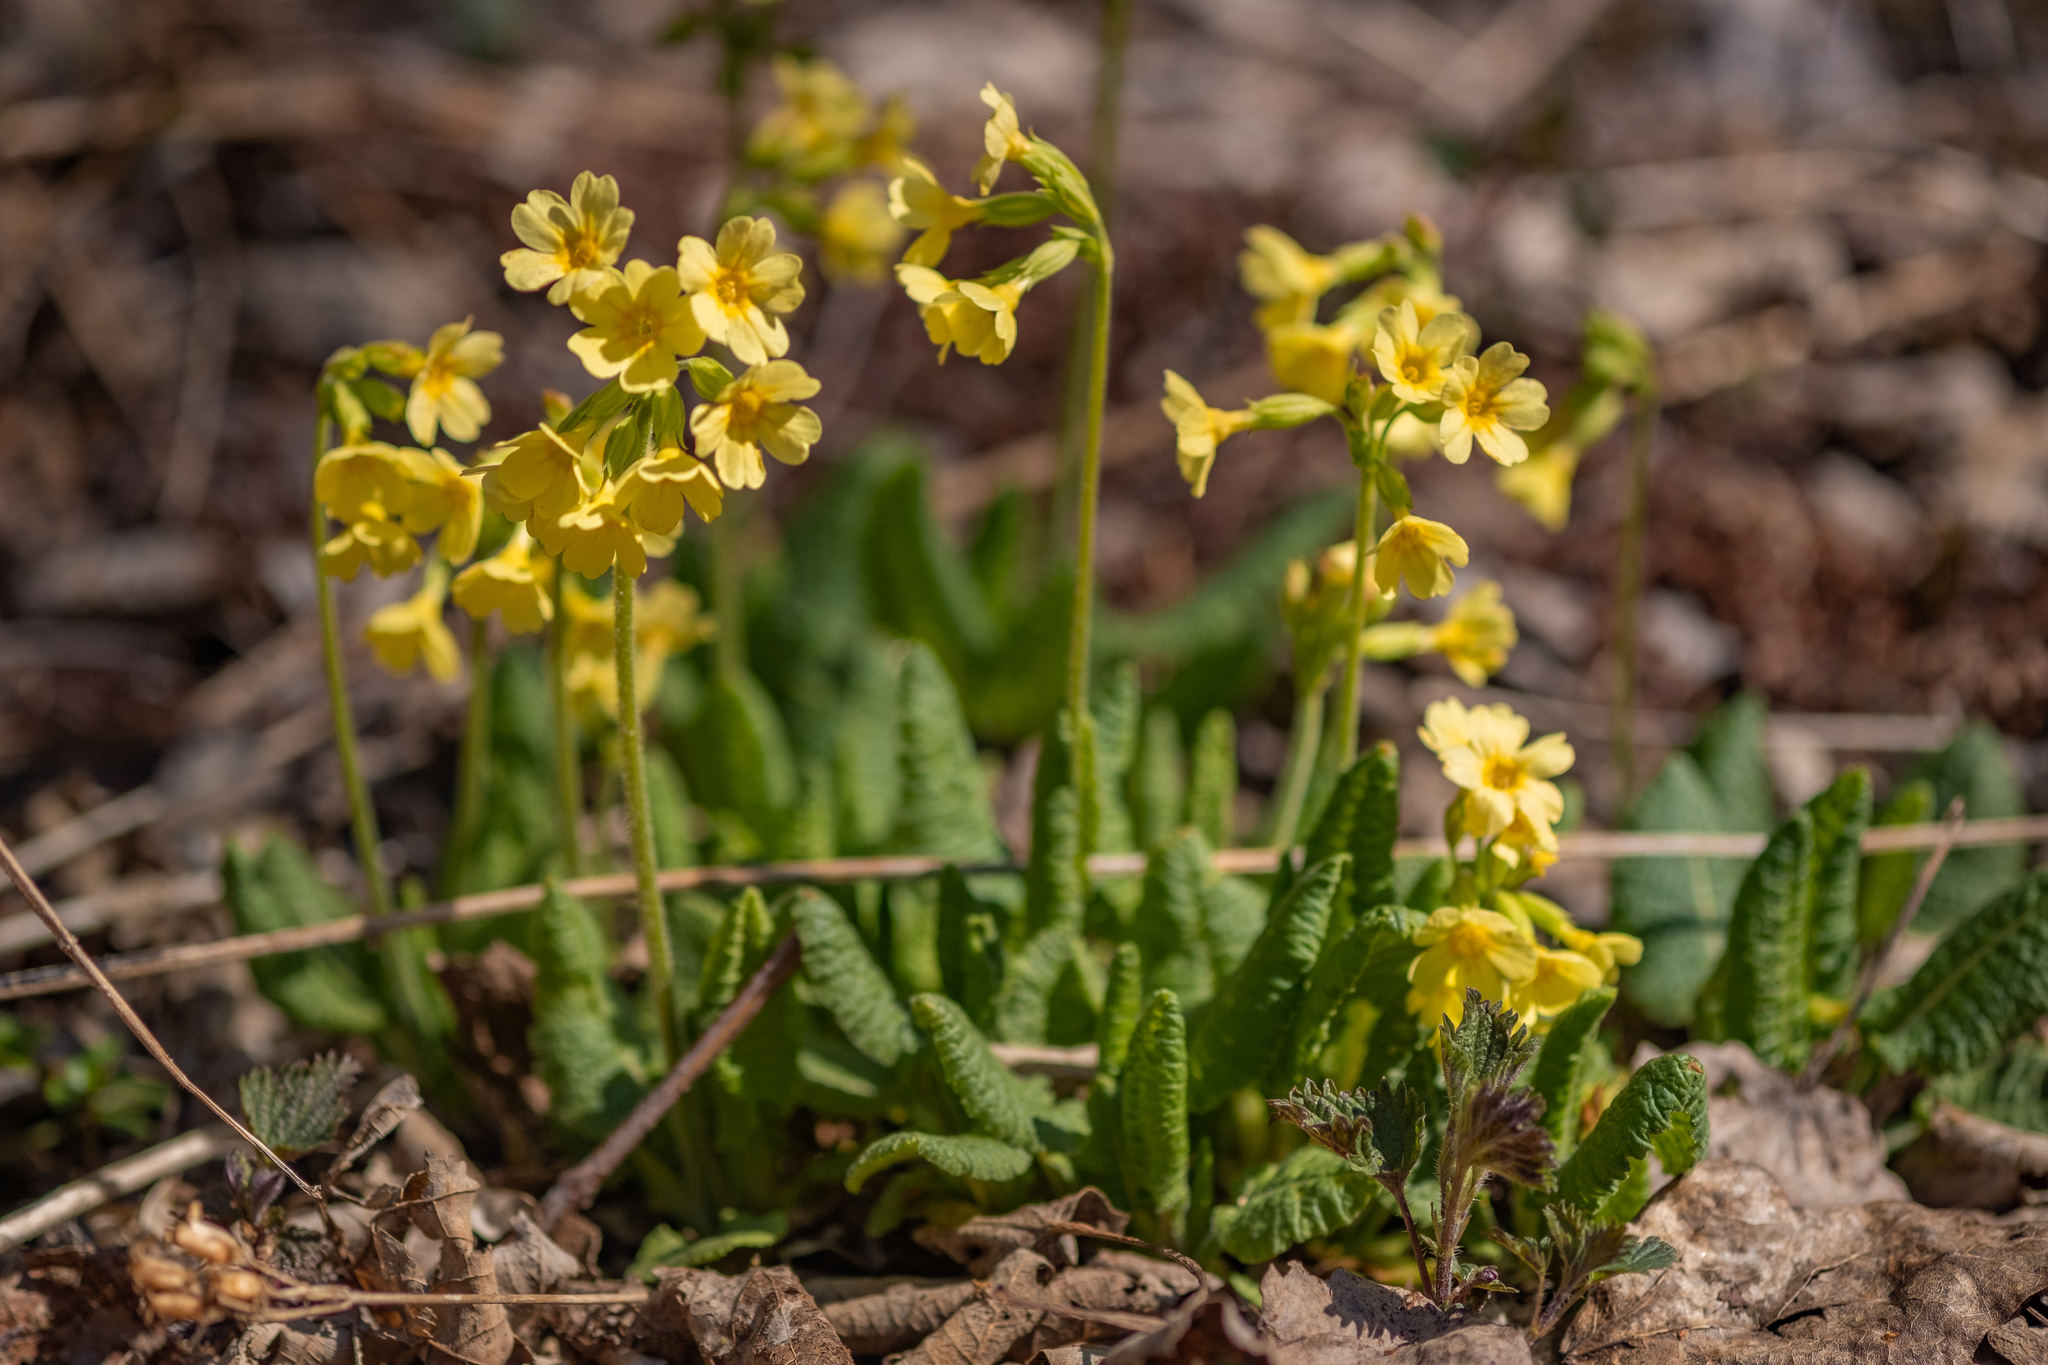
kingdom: Plantae
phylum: Tracheophyta
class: Magnoliopsida
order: Ericales
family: Primulaceae
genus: Primula
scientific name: Primula elatior
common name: Oxlip
